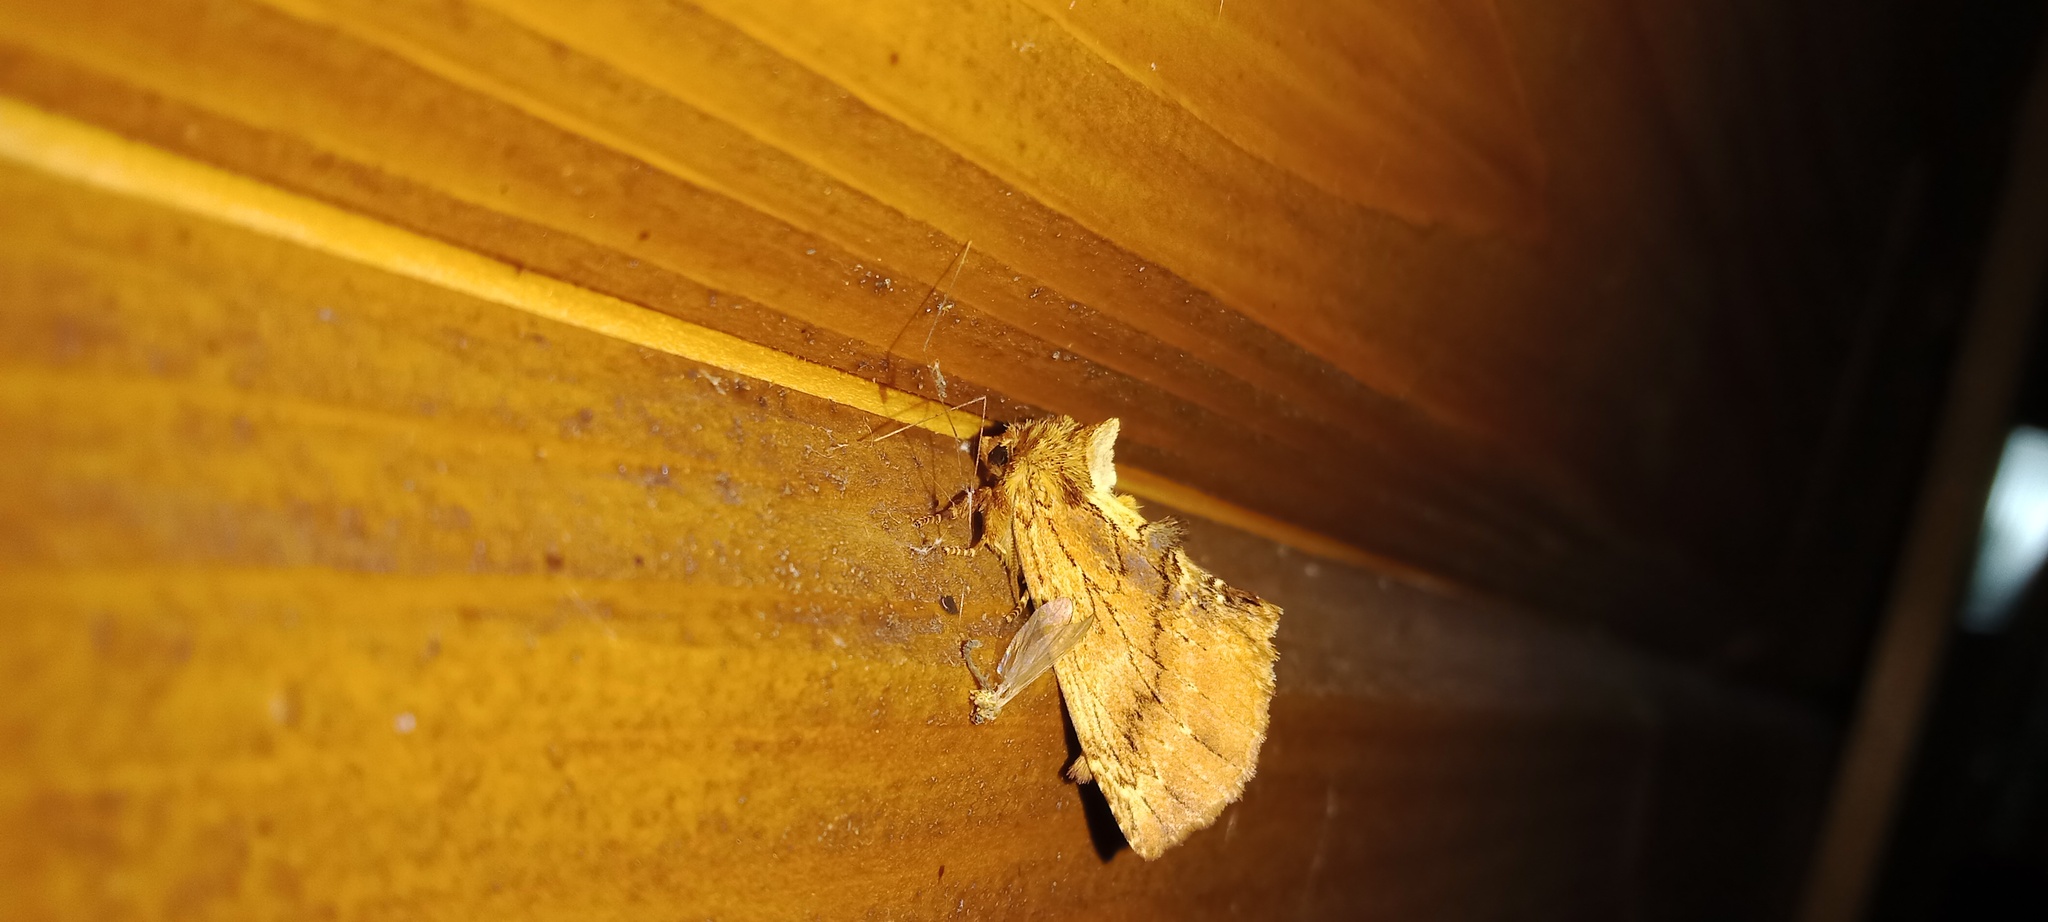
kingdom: Animalia
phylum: Arthropoda
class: Insecta
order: Lepidoptera
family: Notodontidae
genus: Ptilodon
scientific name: Ptilodon capucina
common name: Coxcomb prominent
